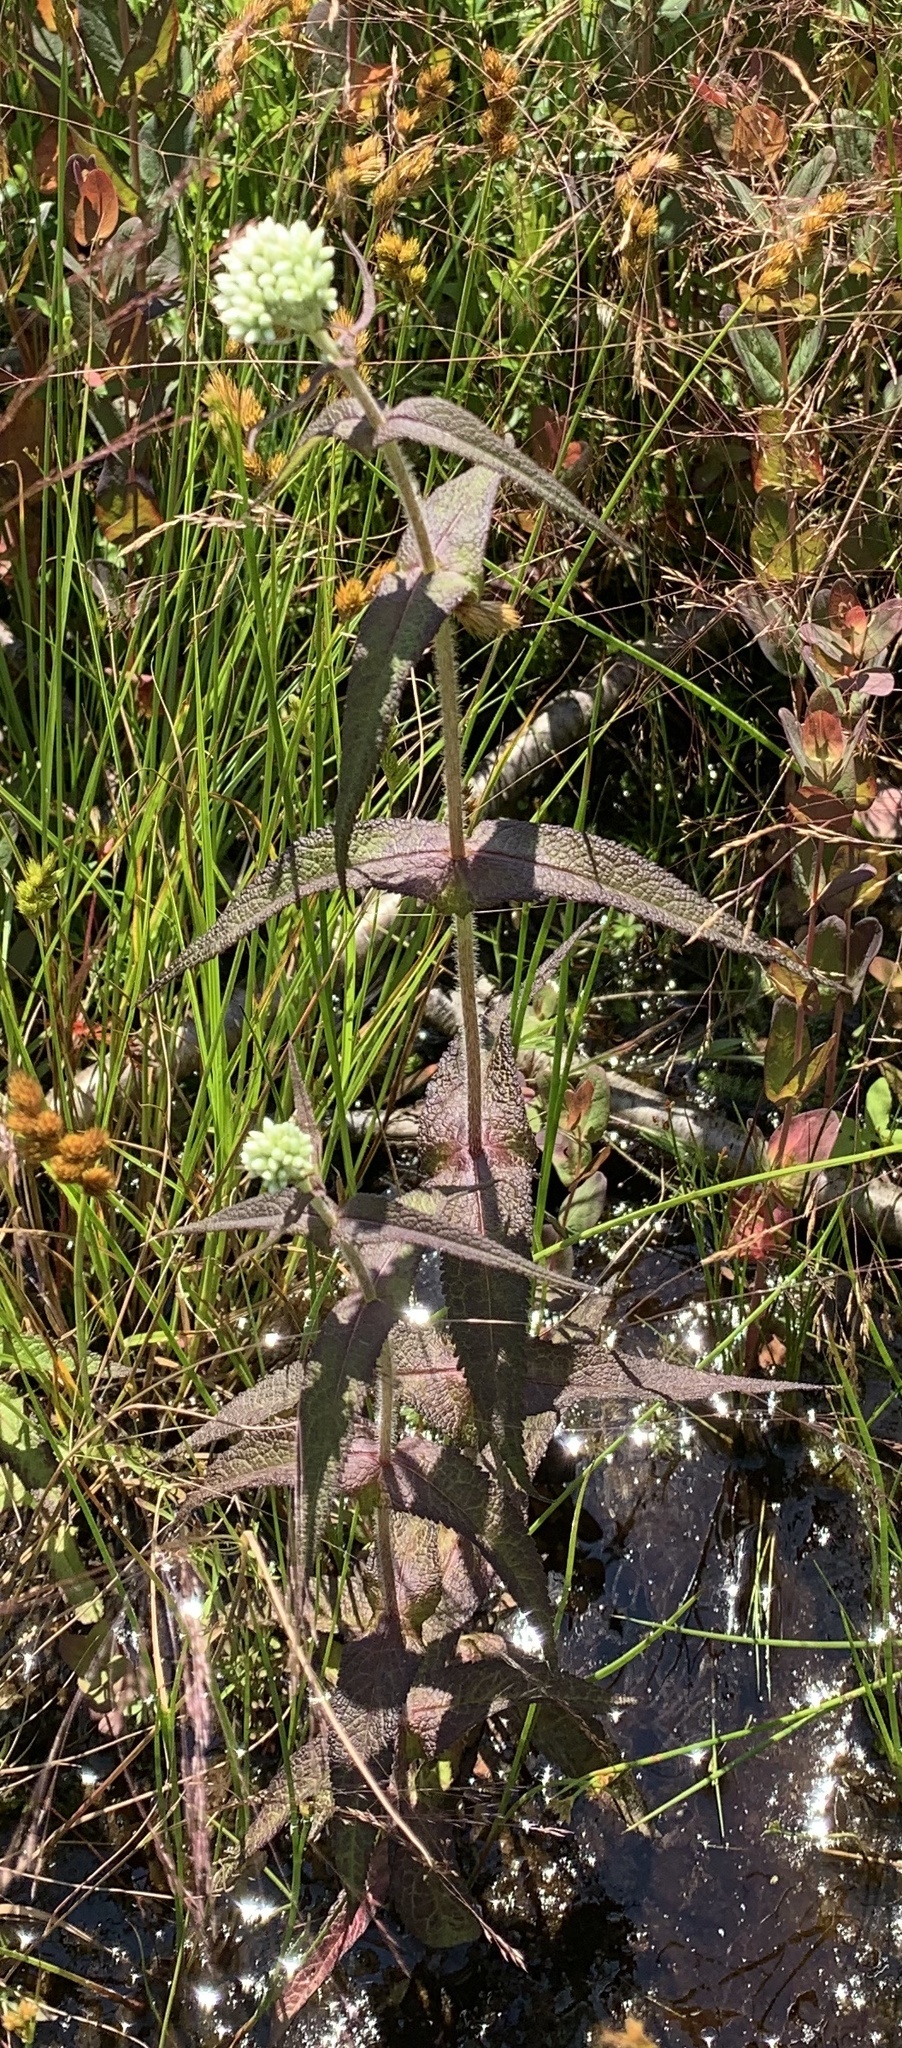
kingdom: Plantae
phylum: Tracheophyta
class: Magnoliopsida
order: Asterales
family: Asteraceae
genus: Eupatorium
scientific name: Eupatorium perfoliatum
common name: Boneset
